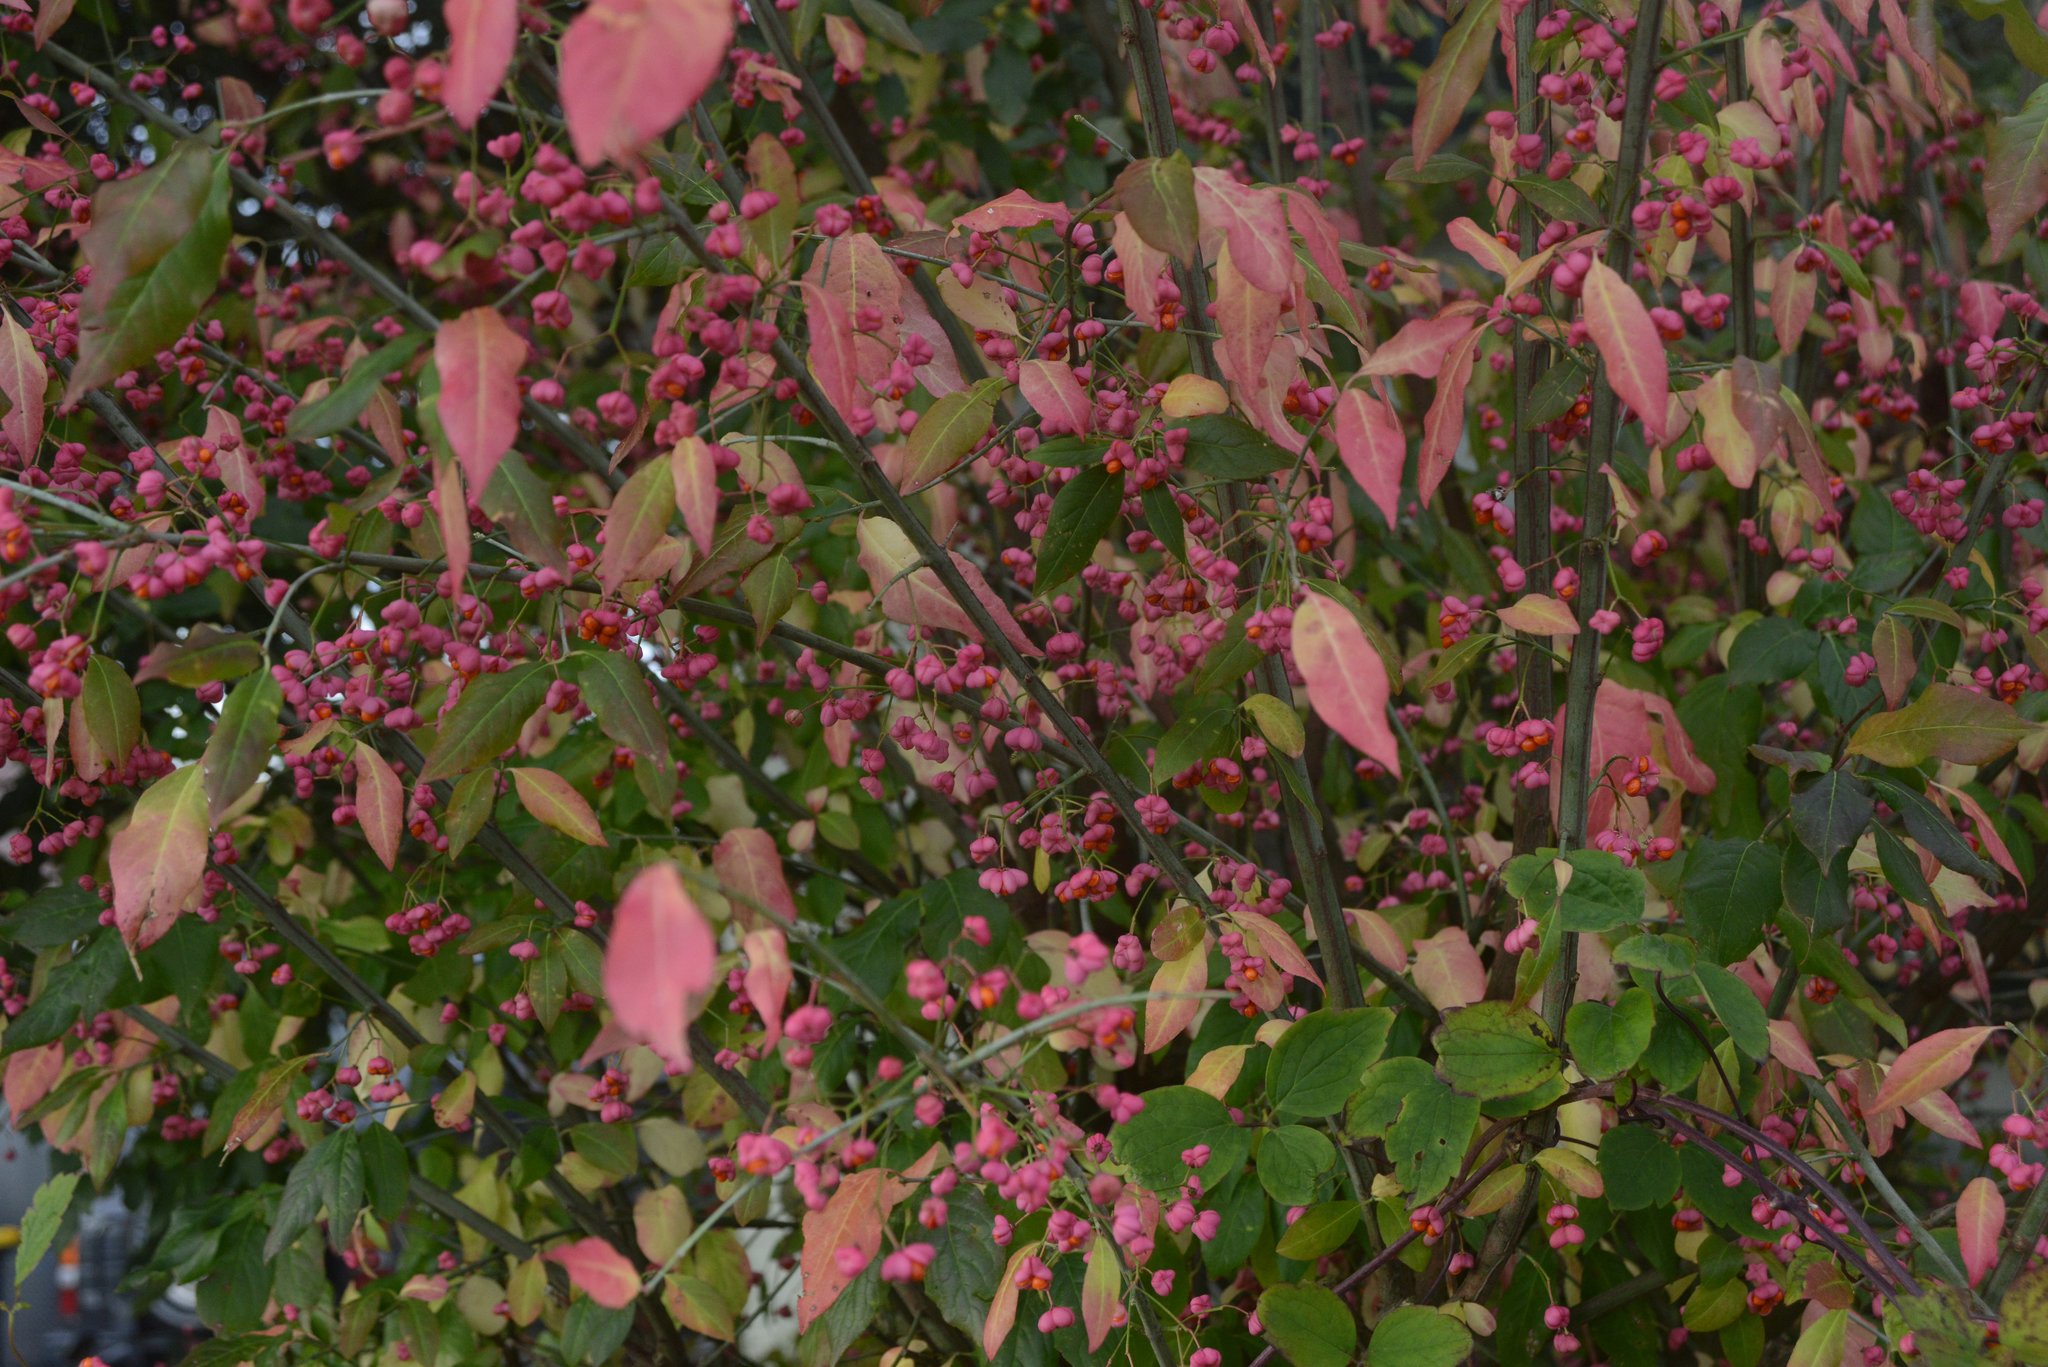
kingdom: Plantae
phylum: Tracheophyta
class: Magnoliopsida
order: Celastrales
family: Celastraceae
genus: Euonymus
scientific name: Euonymus europaeus
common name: Spindle
